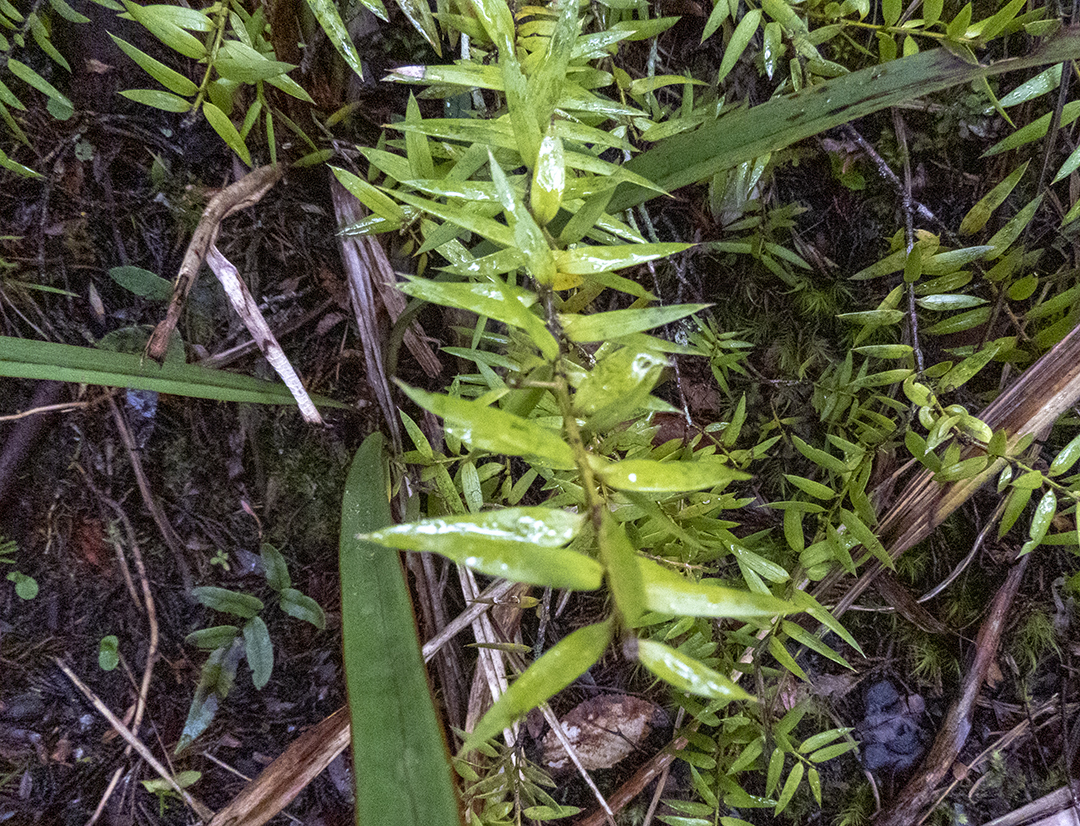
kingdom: Plantae
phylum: Tracheophyta
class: Pinopsida
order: Pinales
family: Podocarpaceae
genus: Podocarpus
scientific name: Podocarpus laetus
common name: Hall's totara
